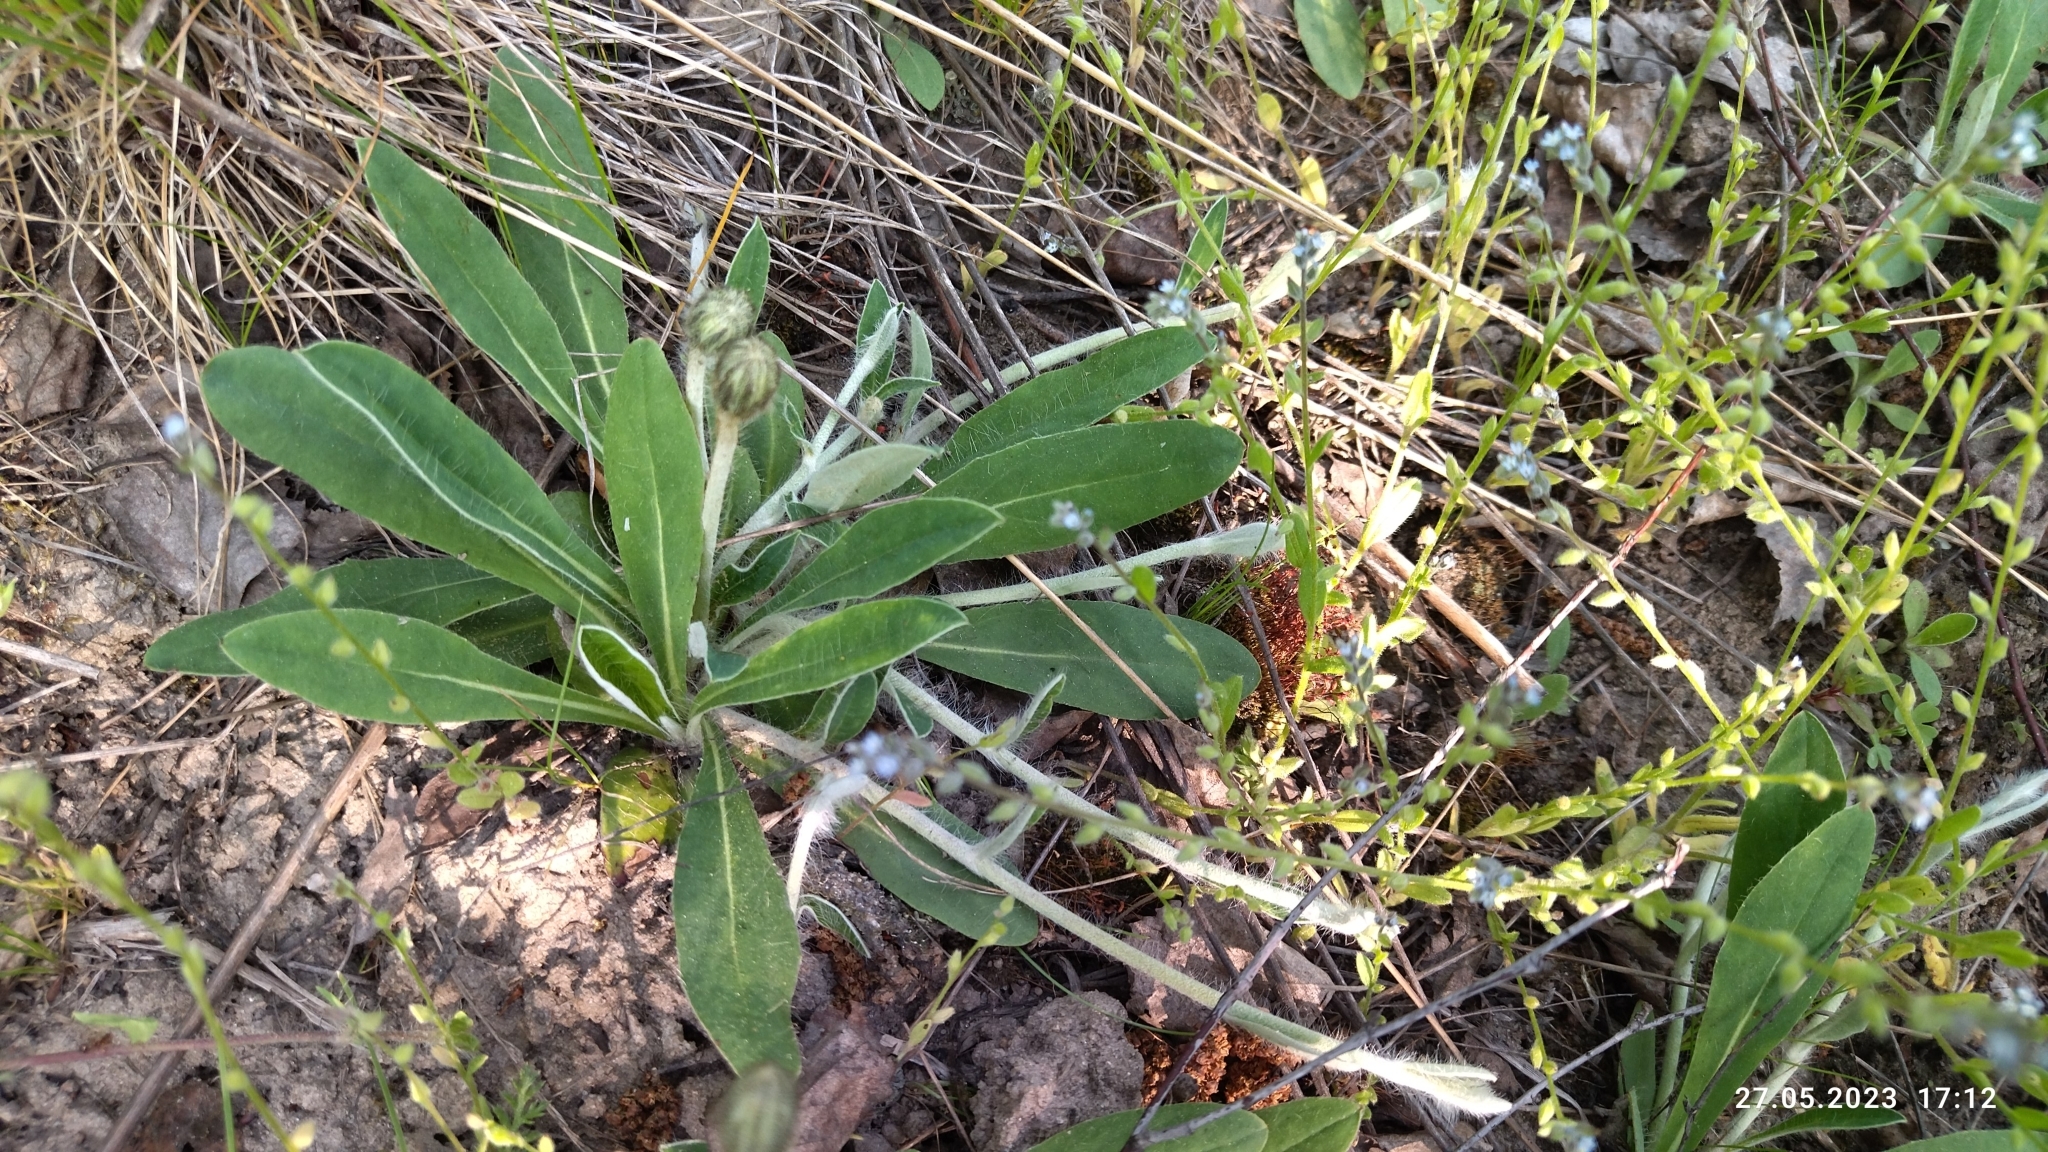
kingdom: Plantae
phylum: Tracheophyta
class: Magnoliopsida
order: Asterales
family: Asteraceae
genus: Pilosella
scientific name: Pilosella officinarum
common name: Mouse-ear hawkweed
